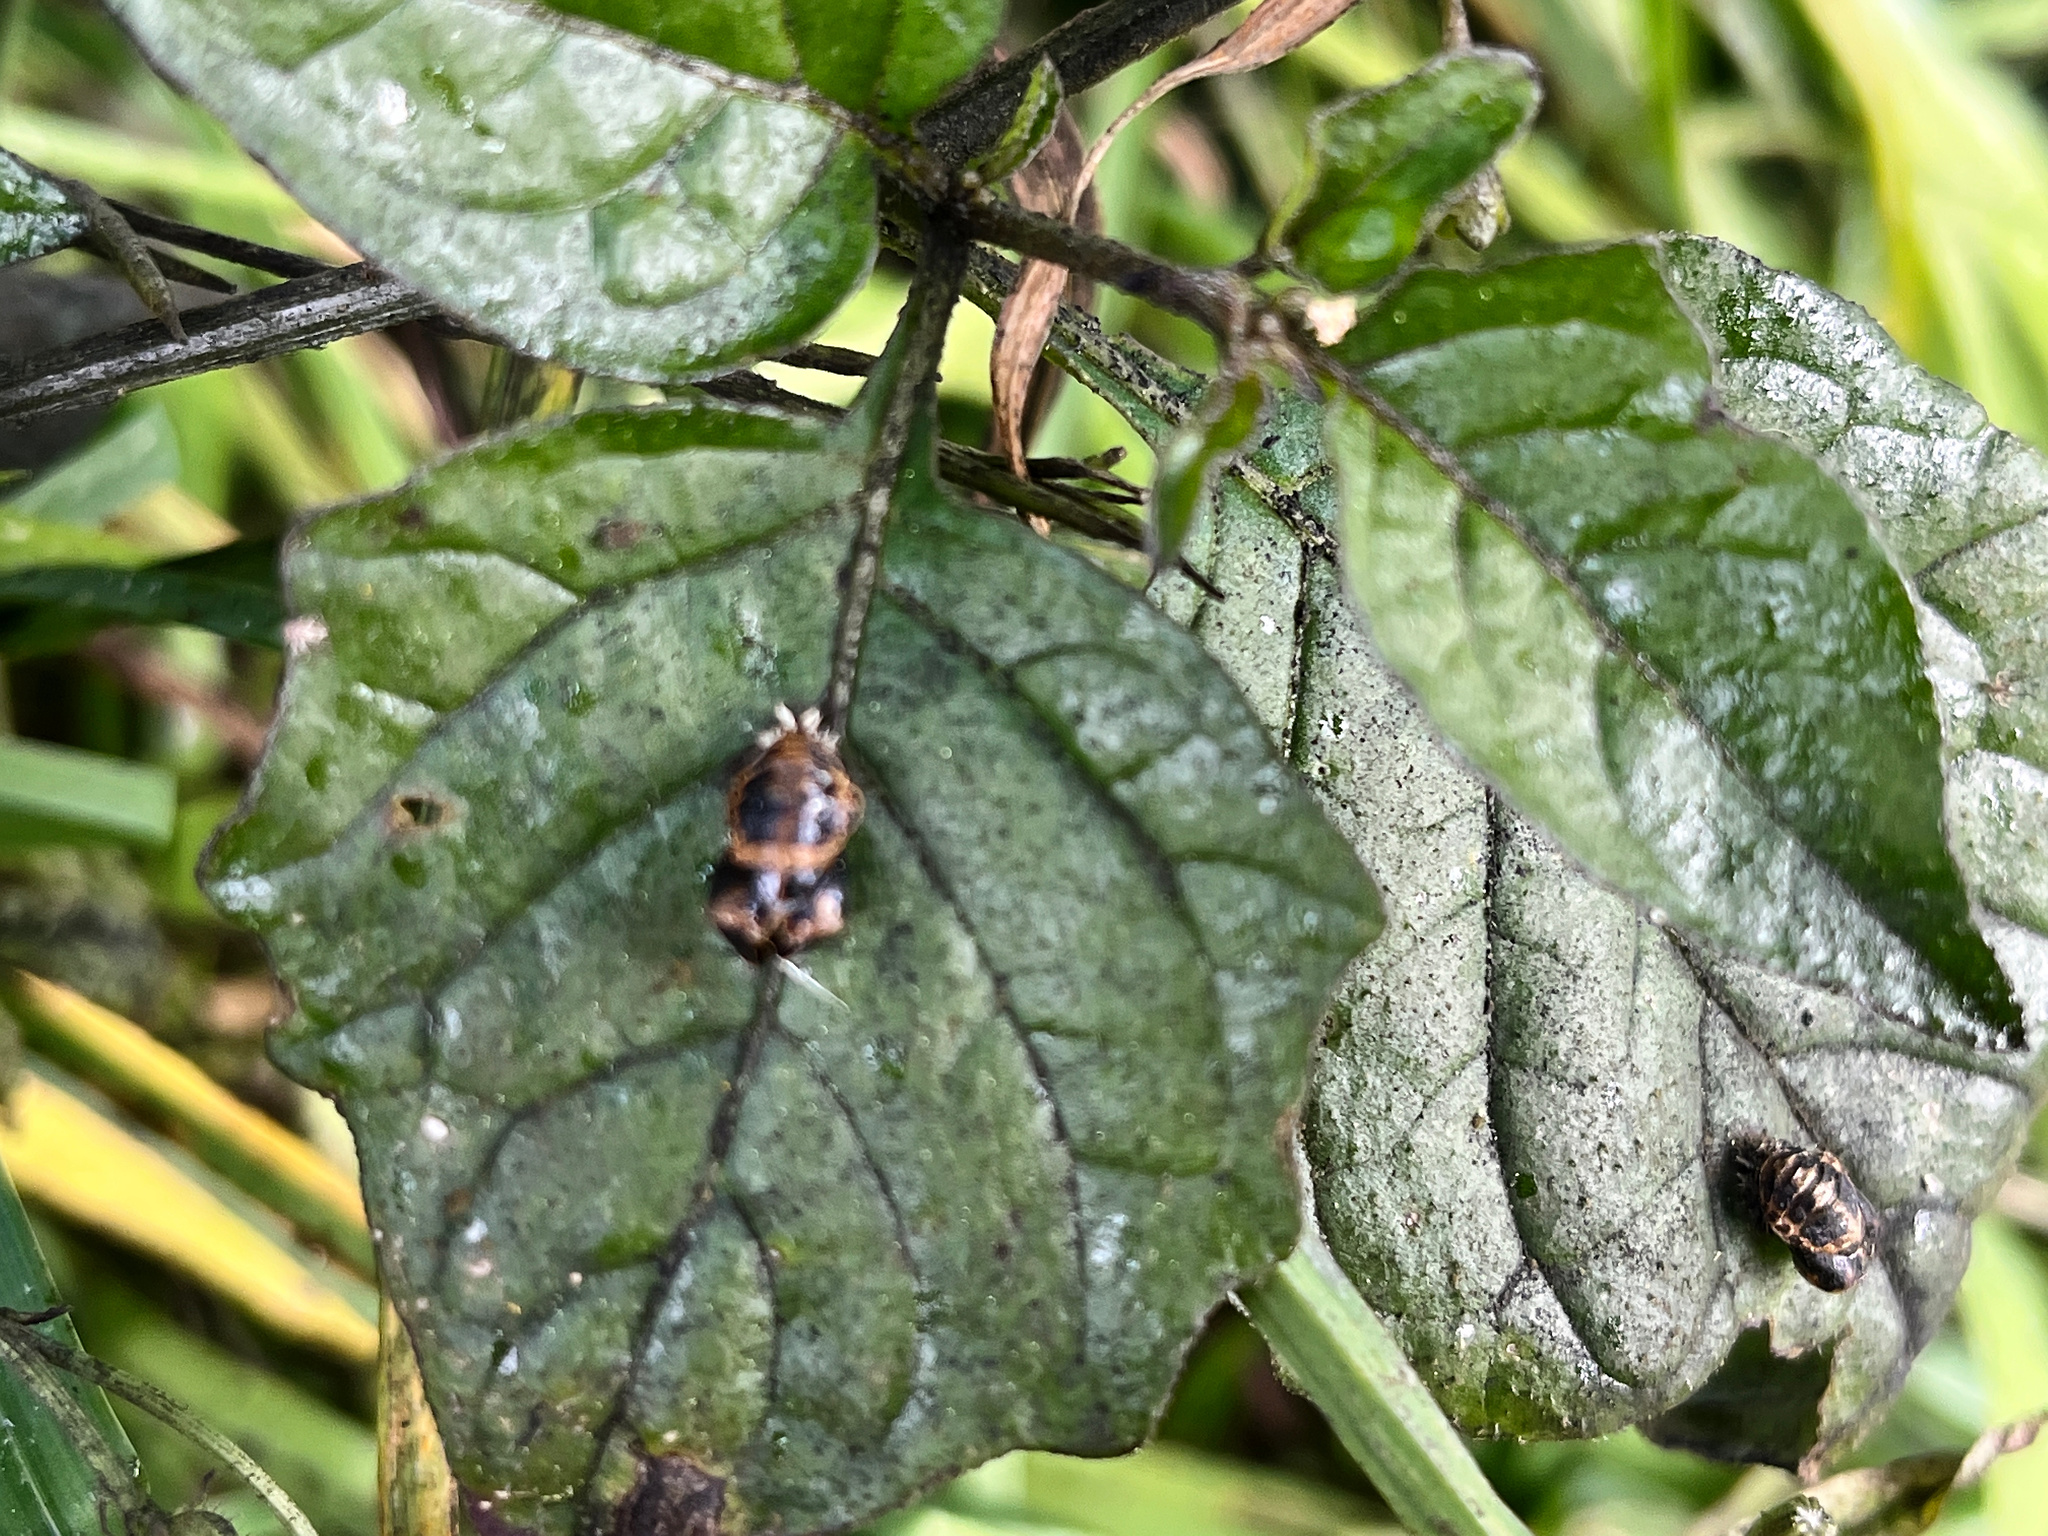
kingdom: Animalia
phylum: Arthropoda
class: Insecta
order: Coleoptera
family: Coccinellidae
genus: Harmonia
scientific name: Harmonia axyridis
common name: Harlequin ladybird
